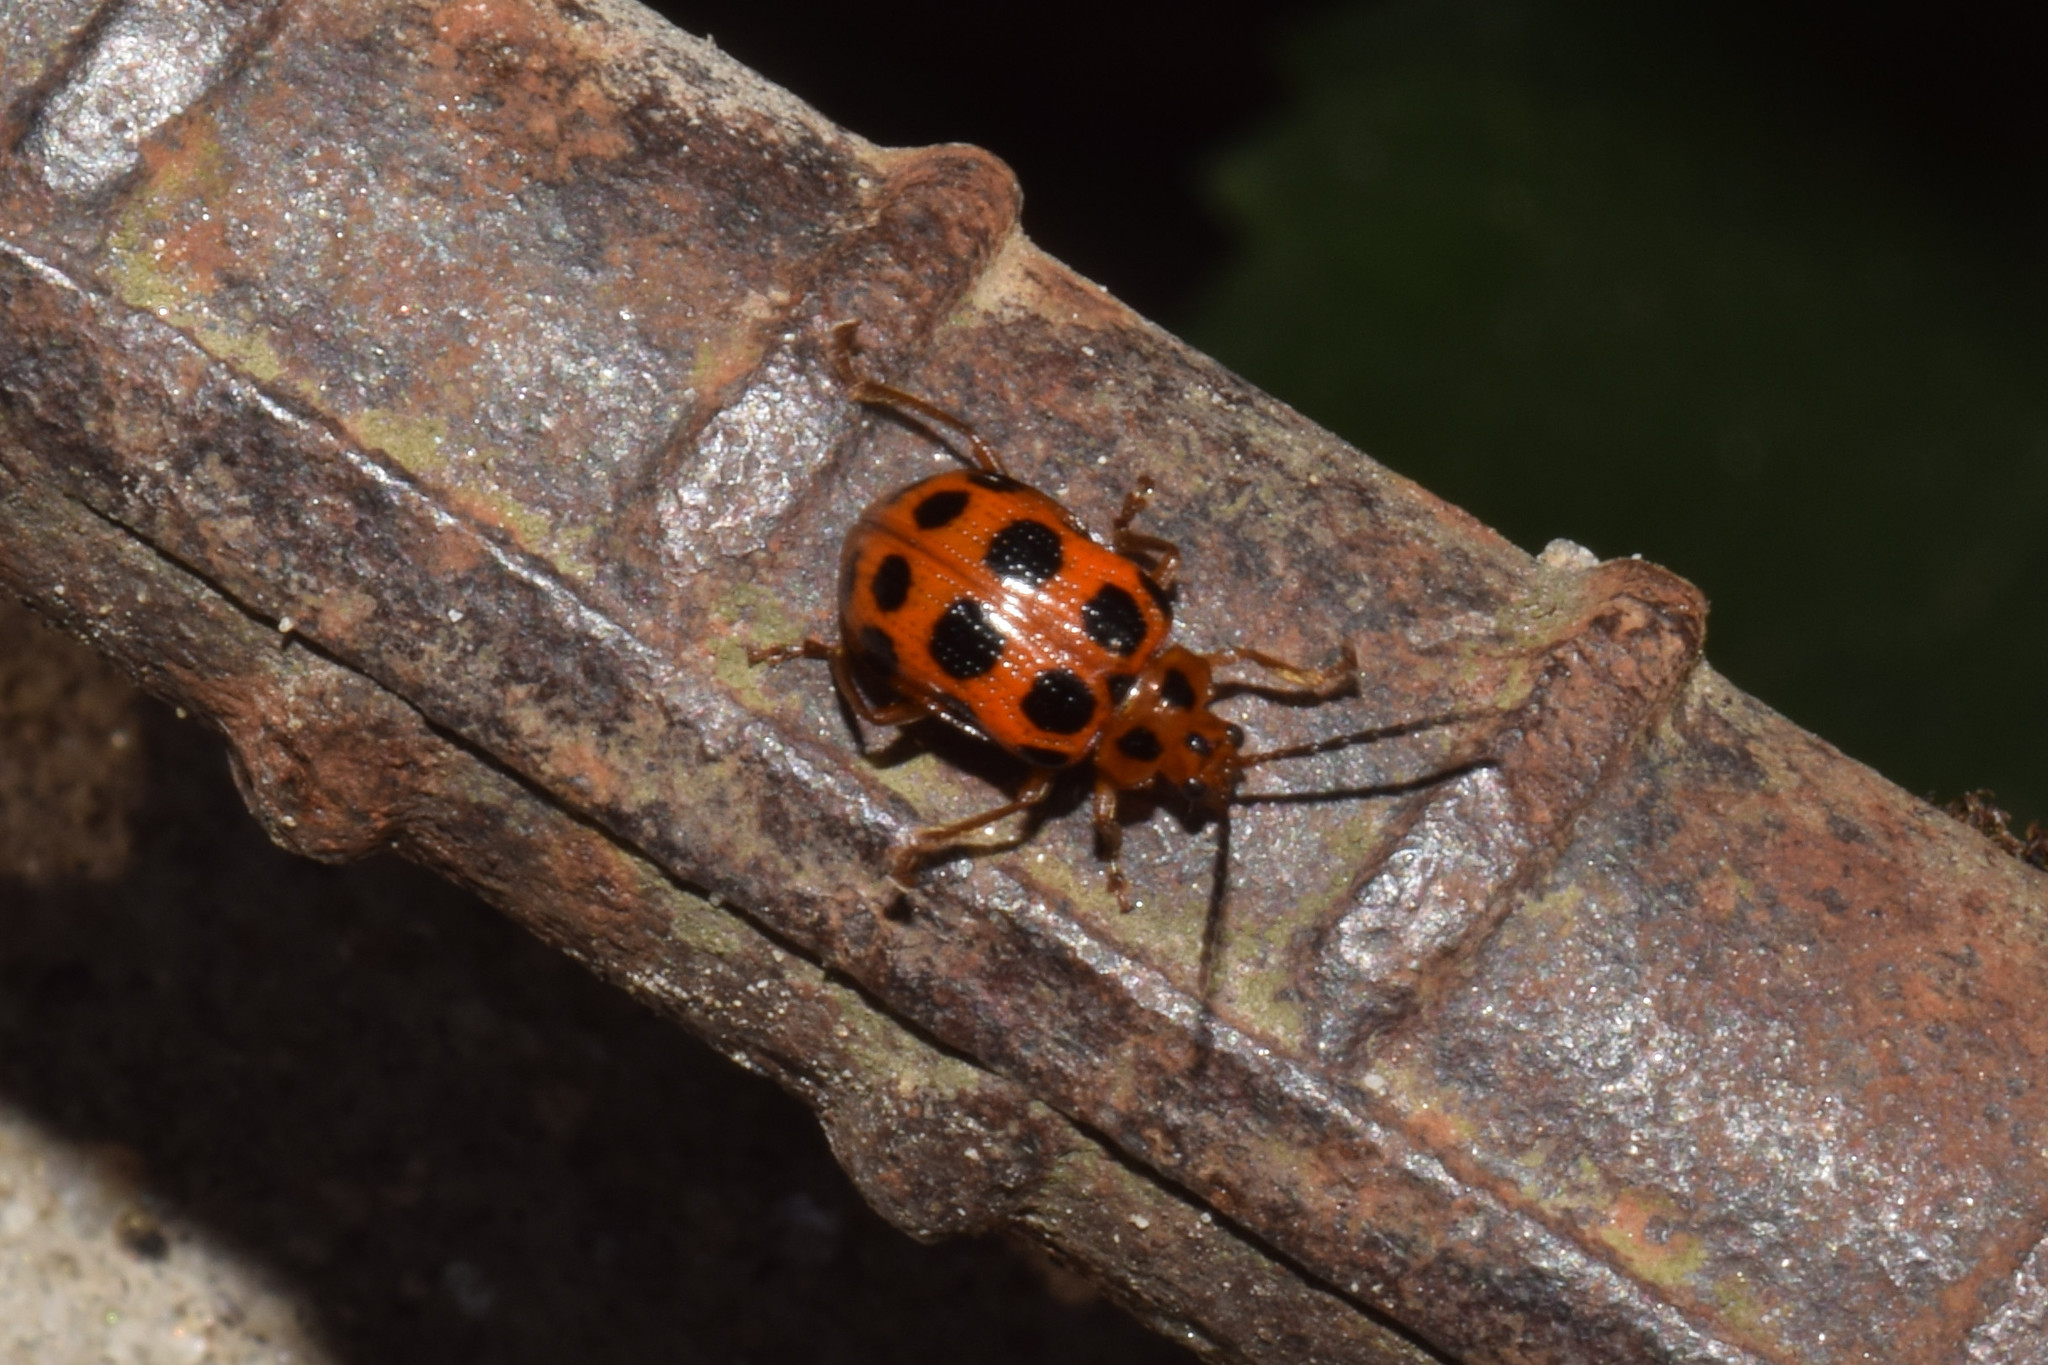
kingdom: Animalia
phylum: Arthropoda
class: Insecta
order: Coleoptera
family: Chrysomelidae
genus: Sphenoraia
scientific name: Sphenoraia
